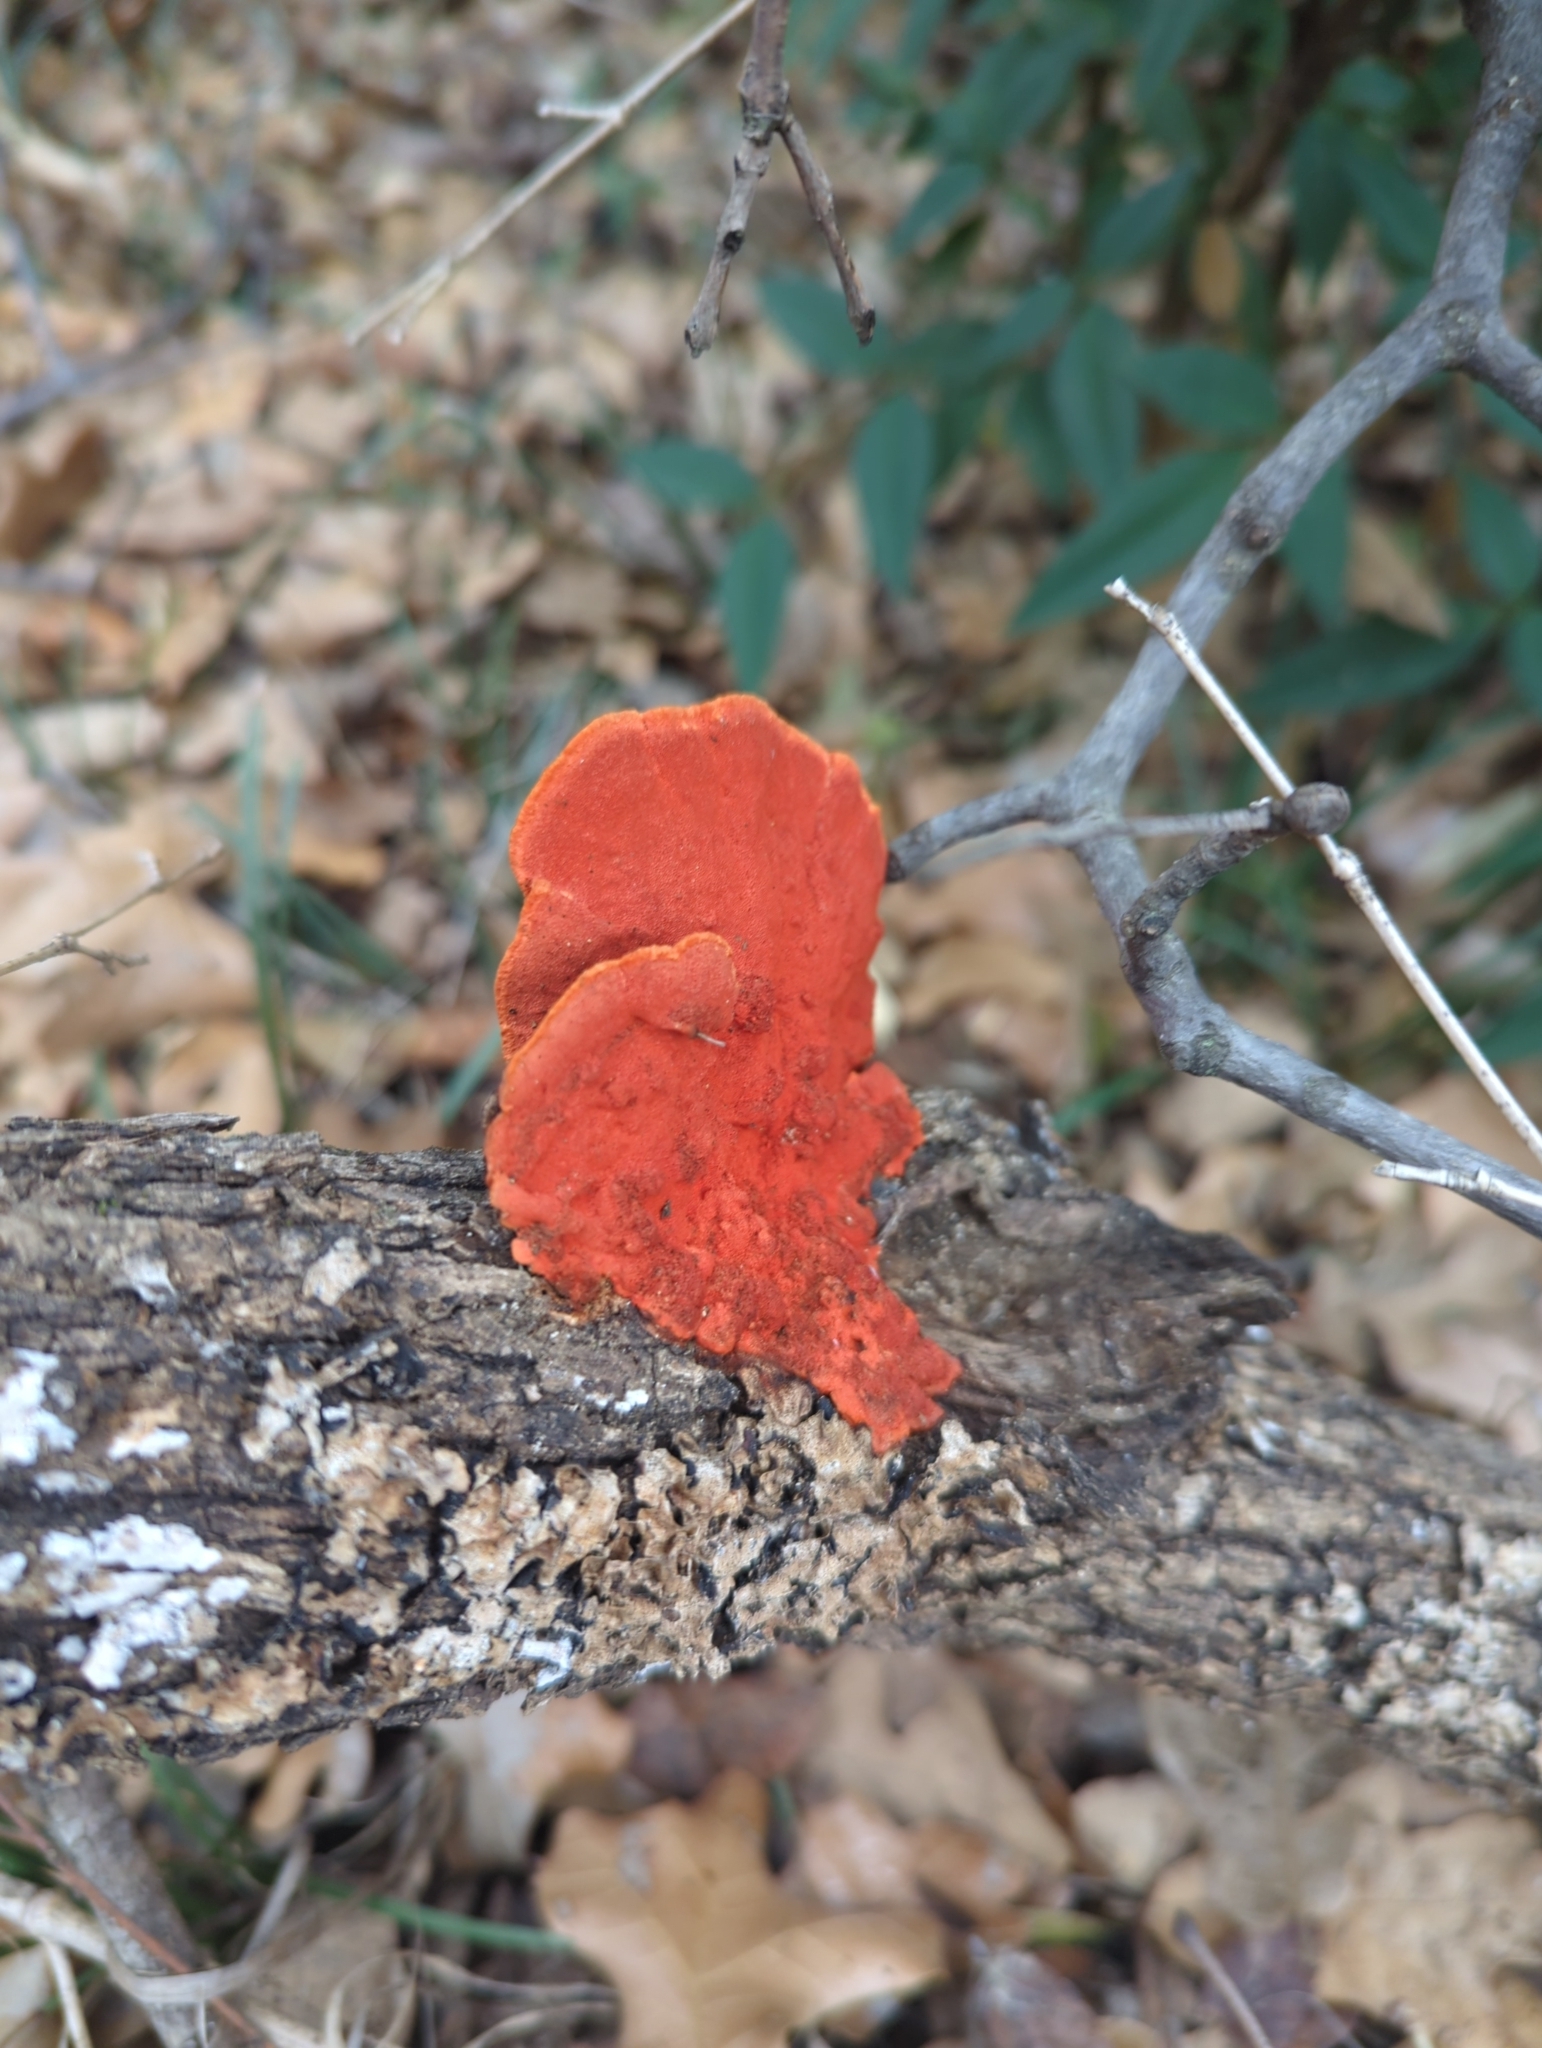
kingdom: Fungi
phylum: Basidiomycota
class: Agaricomycetes
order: Polyporales
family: Polyporaceae
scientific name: Polyporaceae
